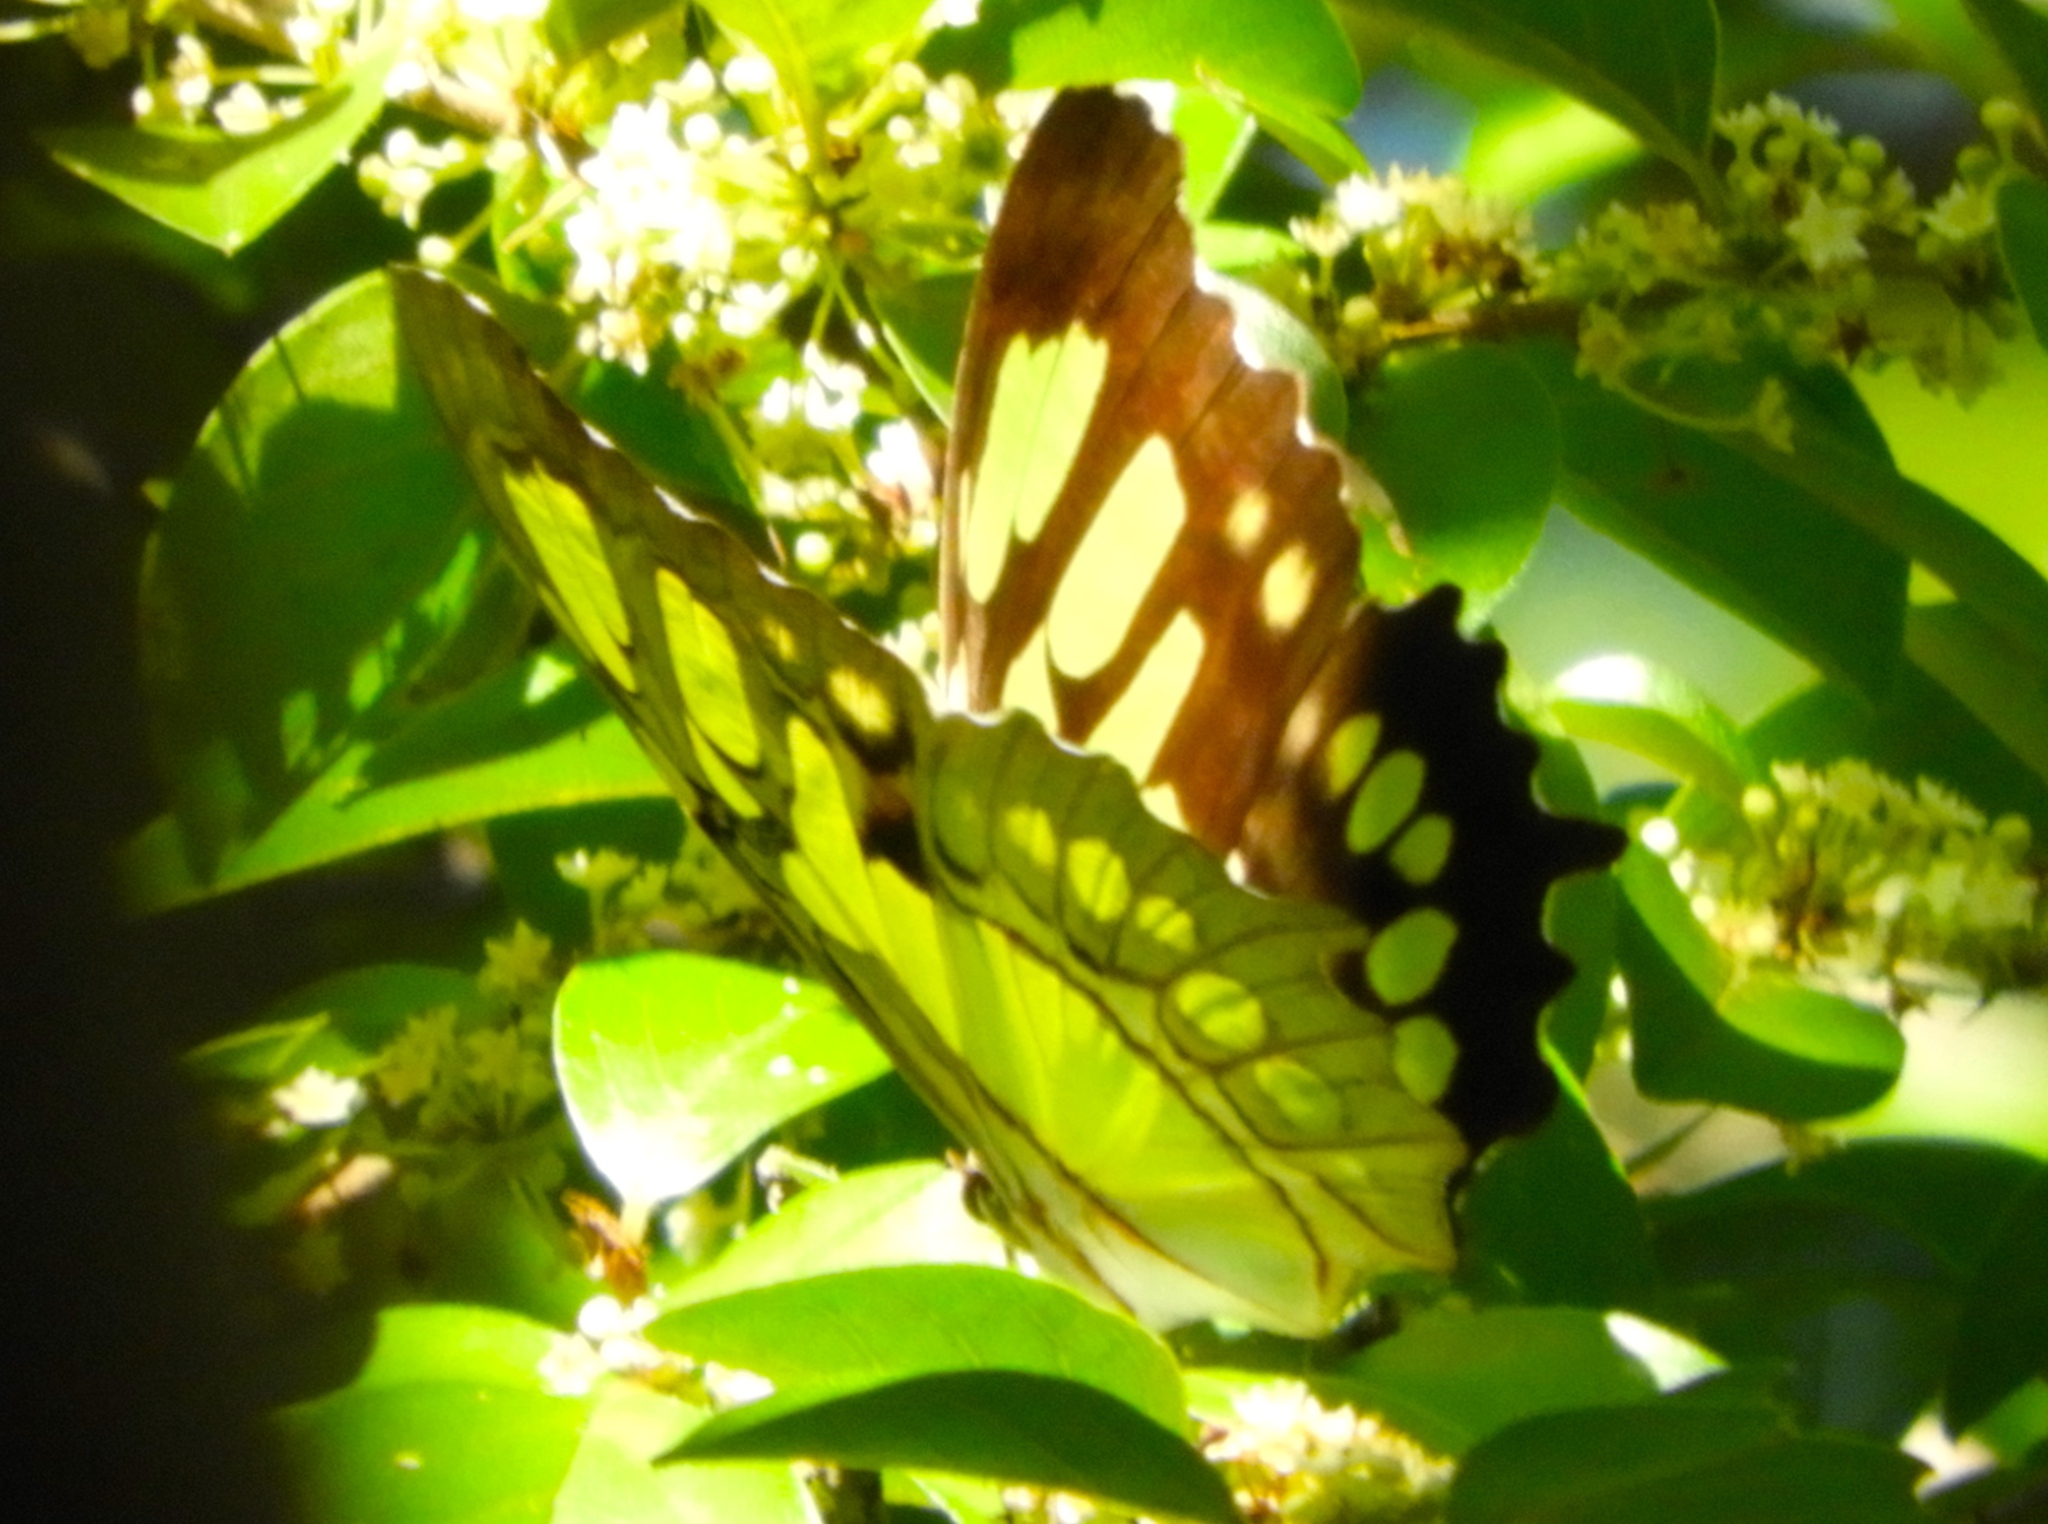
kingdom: Animalia
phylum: Arthropoda
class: Insecta
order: Lepidoptera
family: Nymphalidae
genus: Siproeta
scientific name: Siproeta stelenes
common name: Malachite
